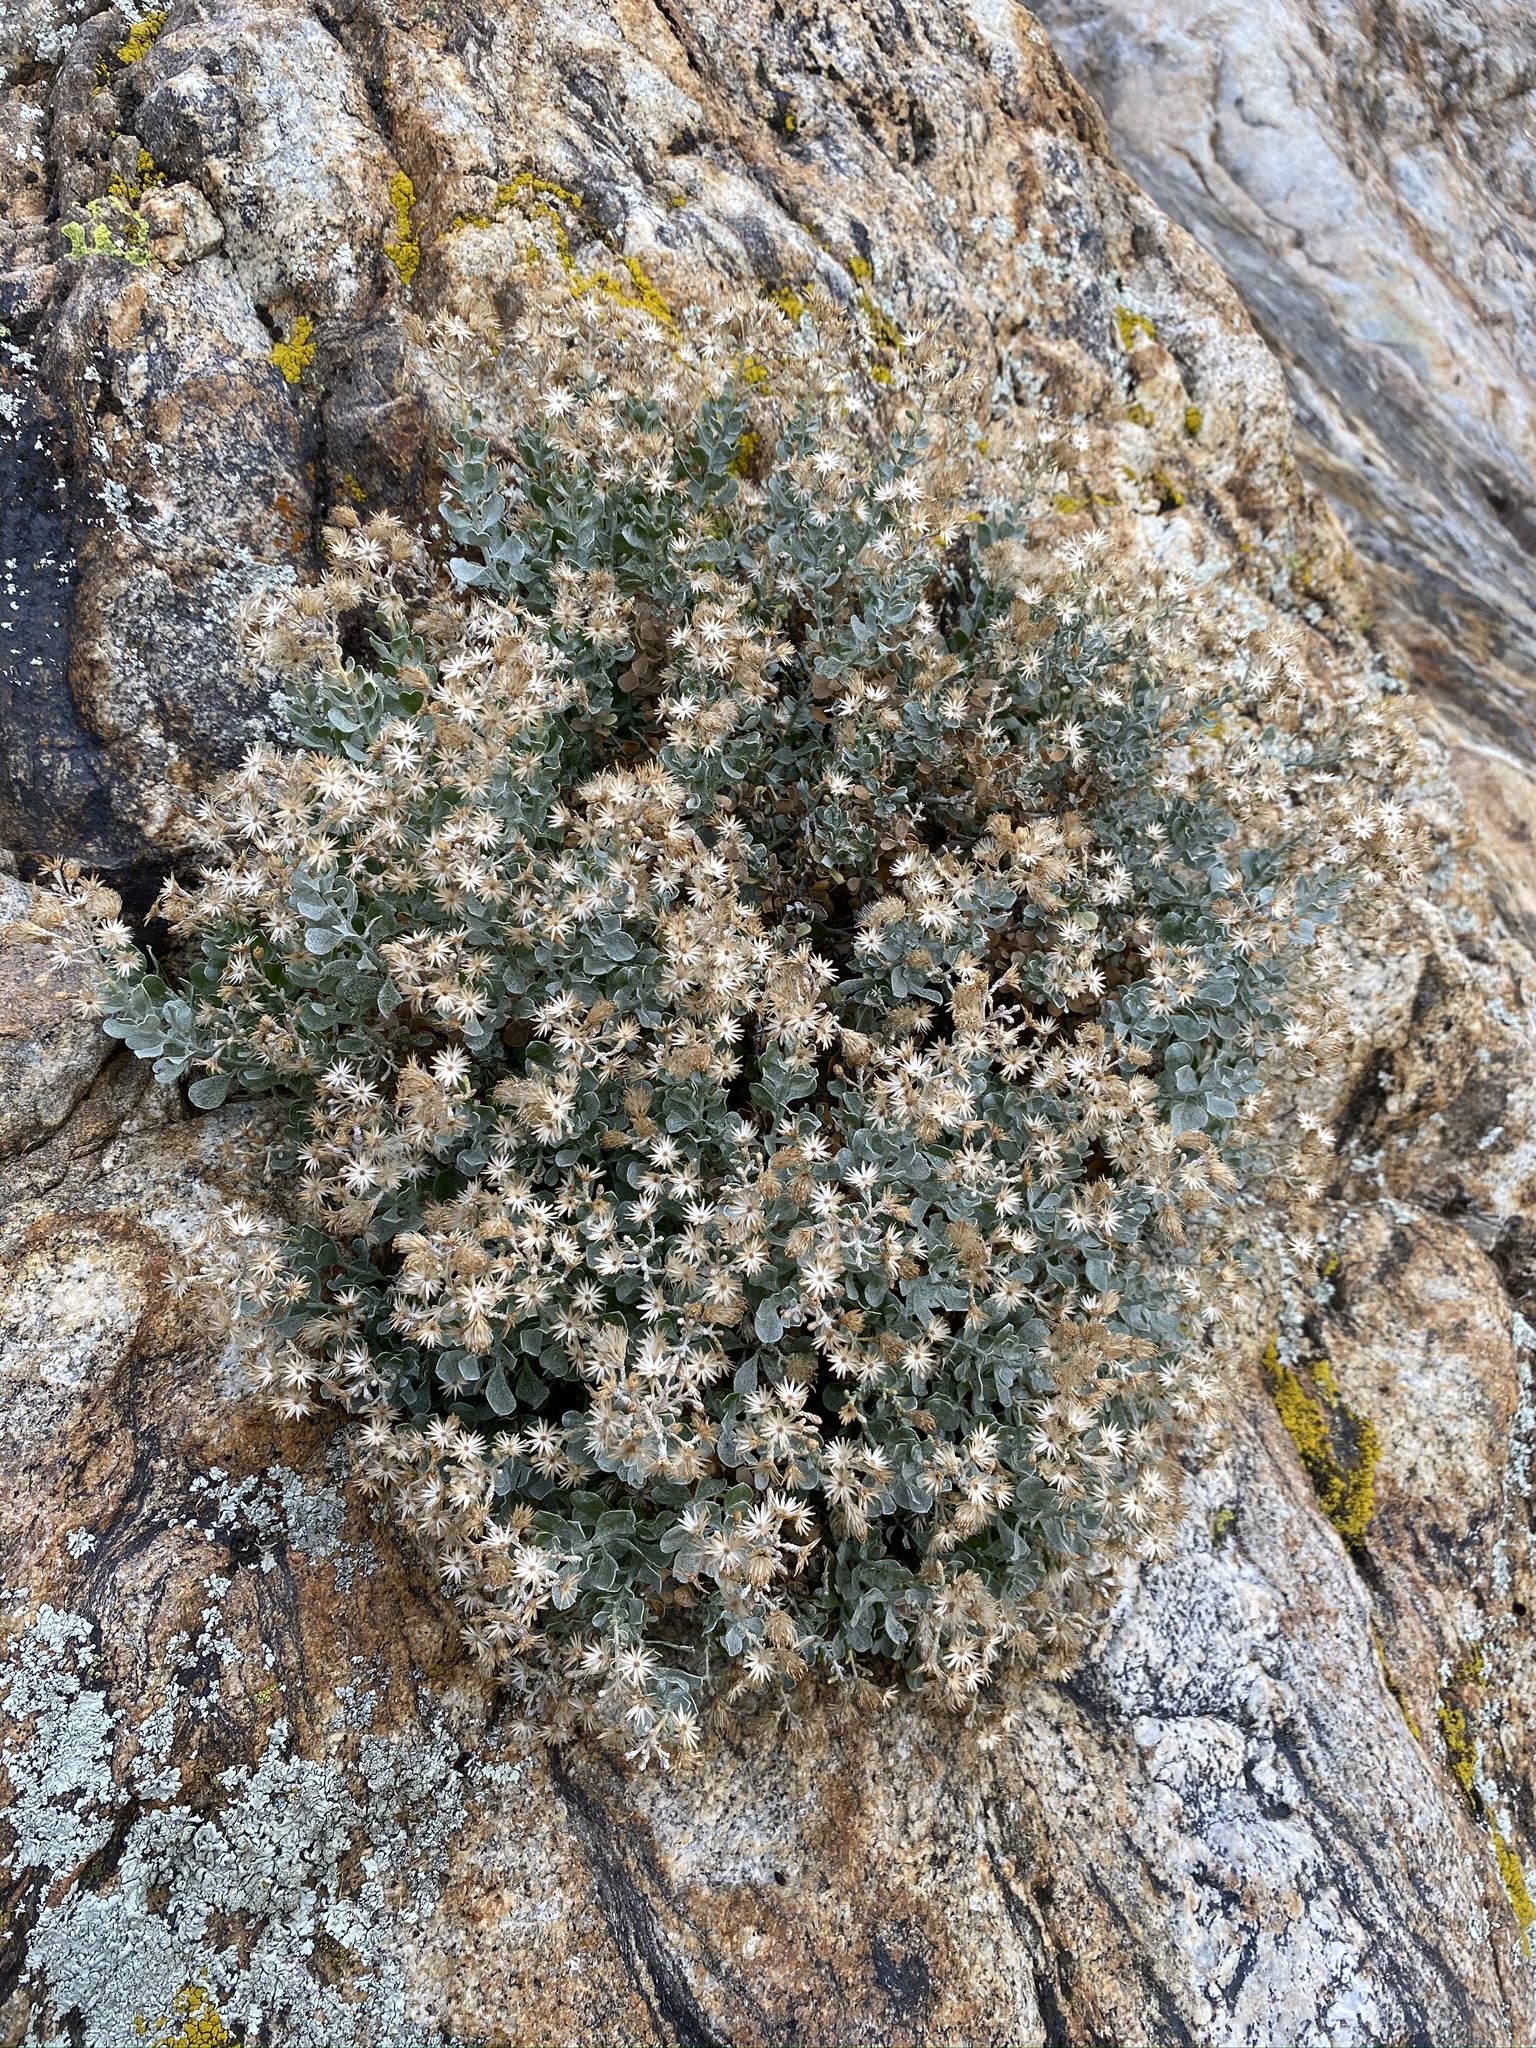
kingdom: Plantae
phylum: Tracheophyta
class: Magnoliopsida
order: Asterales
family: Asteraceae
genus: Ericameria
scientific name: Ericameria cuneata
